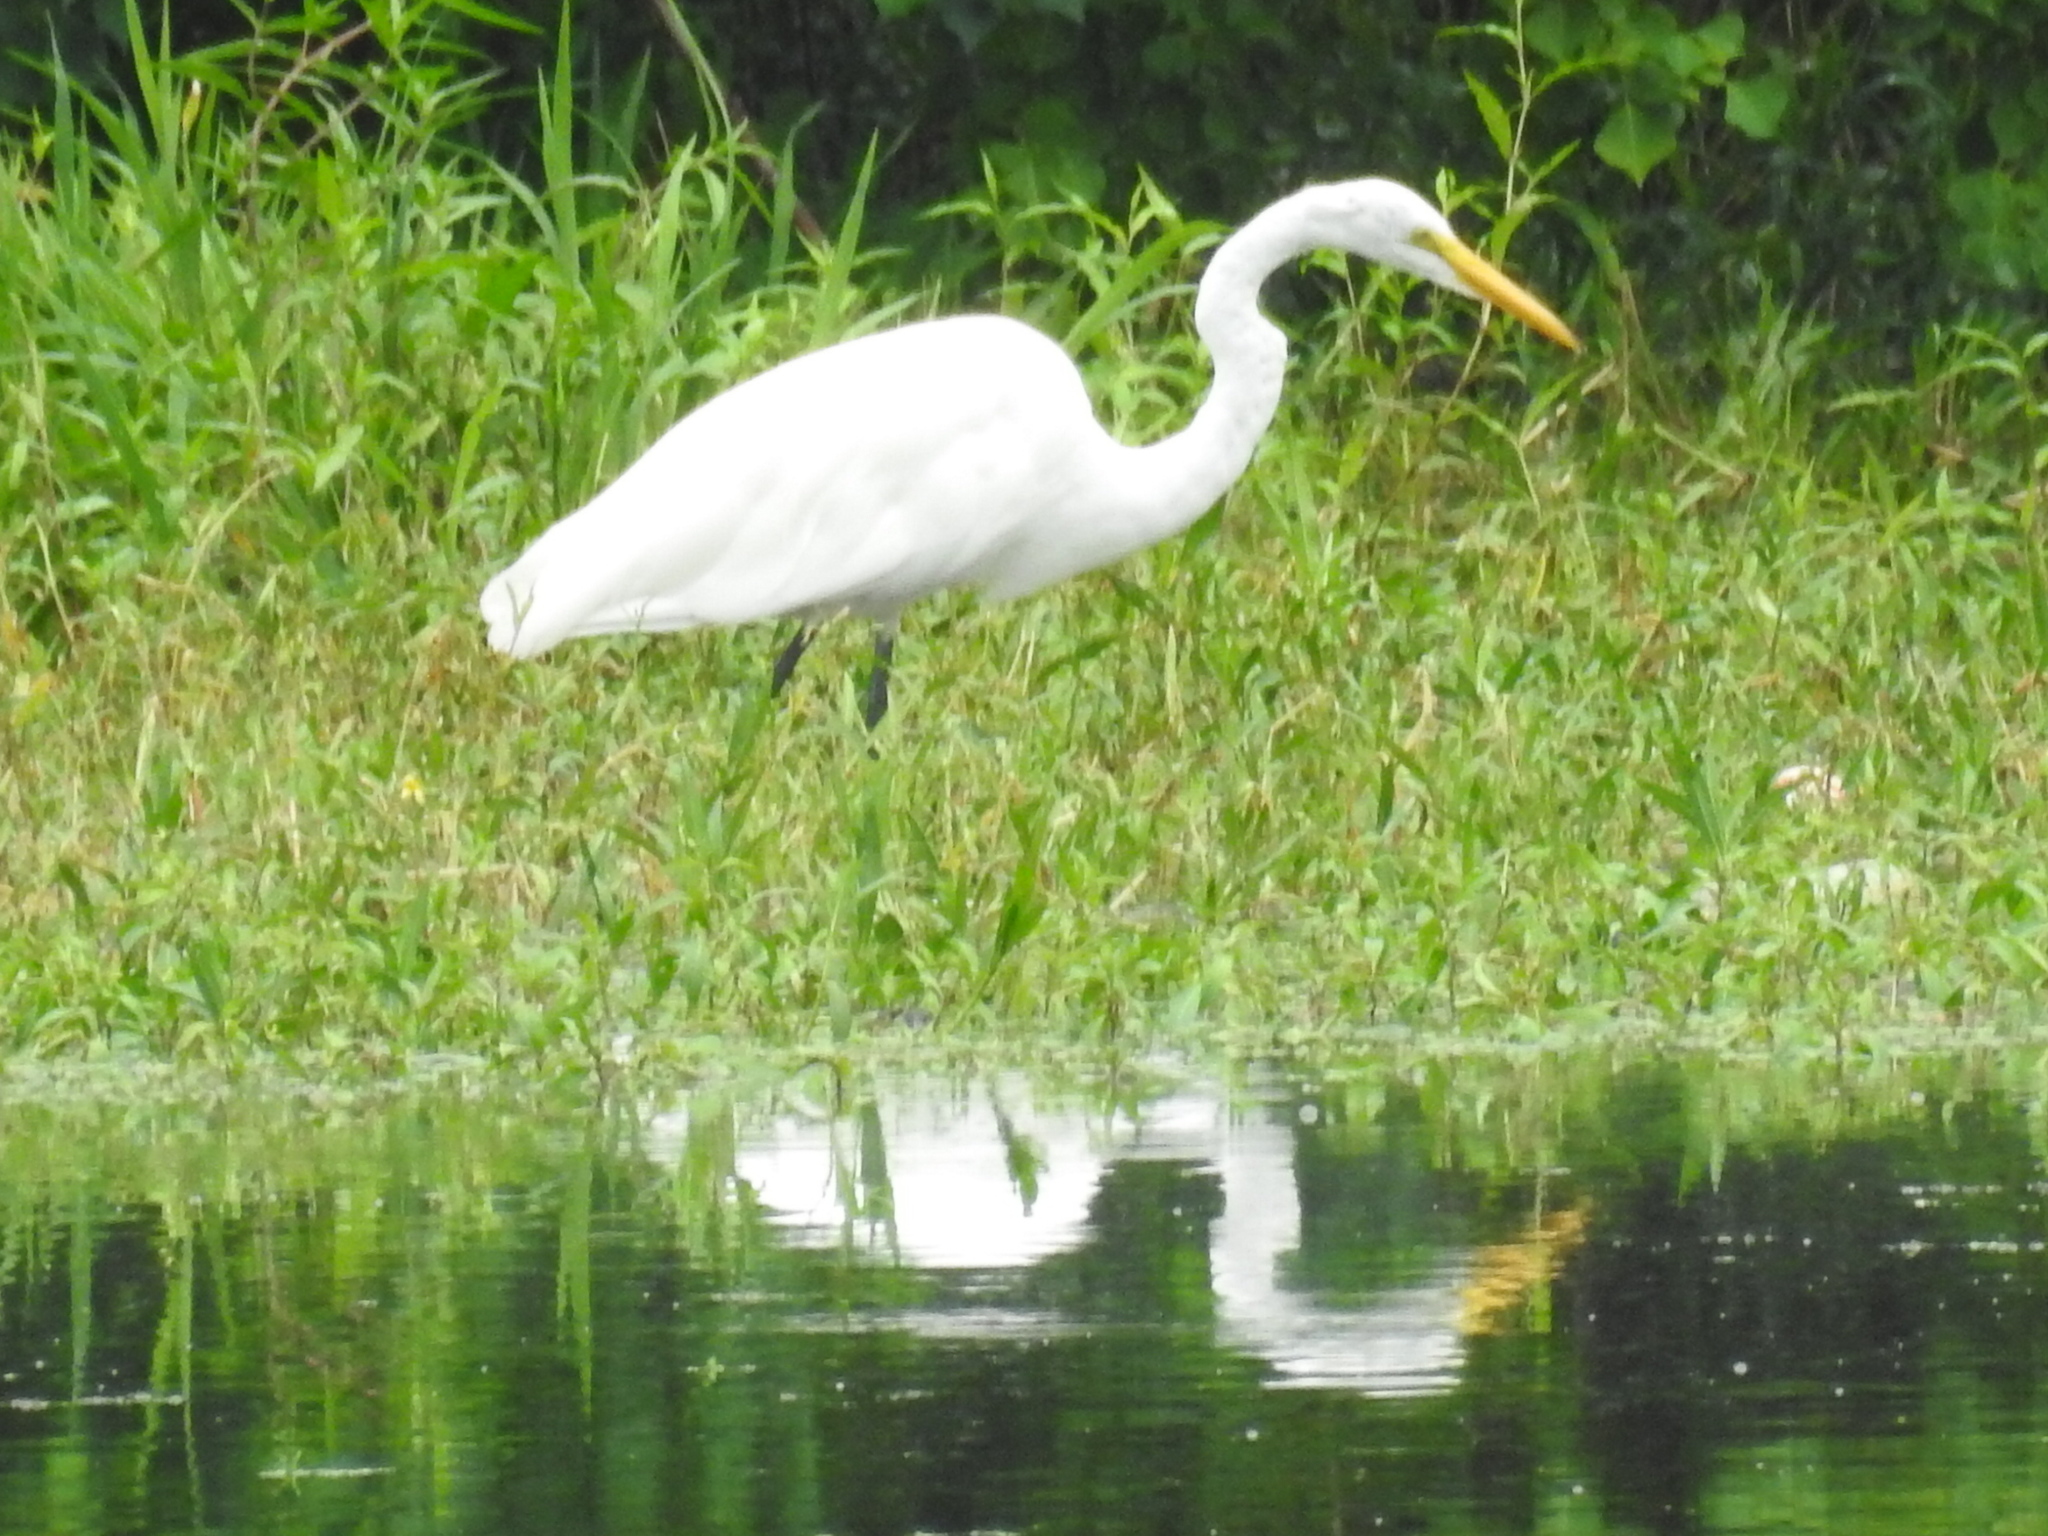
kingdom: Animalia
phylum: Chordata
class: Aves
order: Pelecaniformes
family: Ardeidae
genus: Ardea
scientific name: Ardea alba
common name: Great egret
